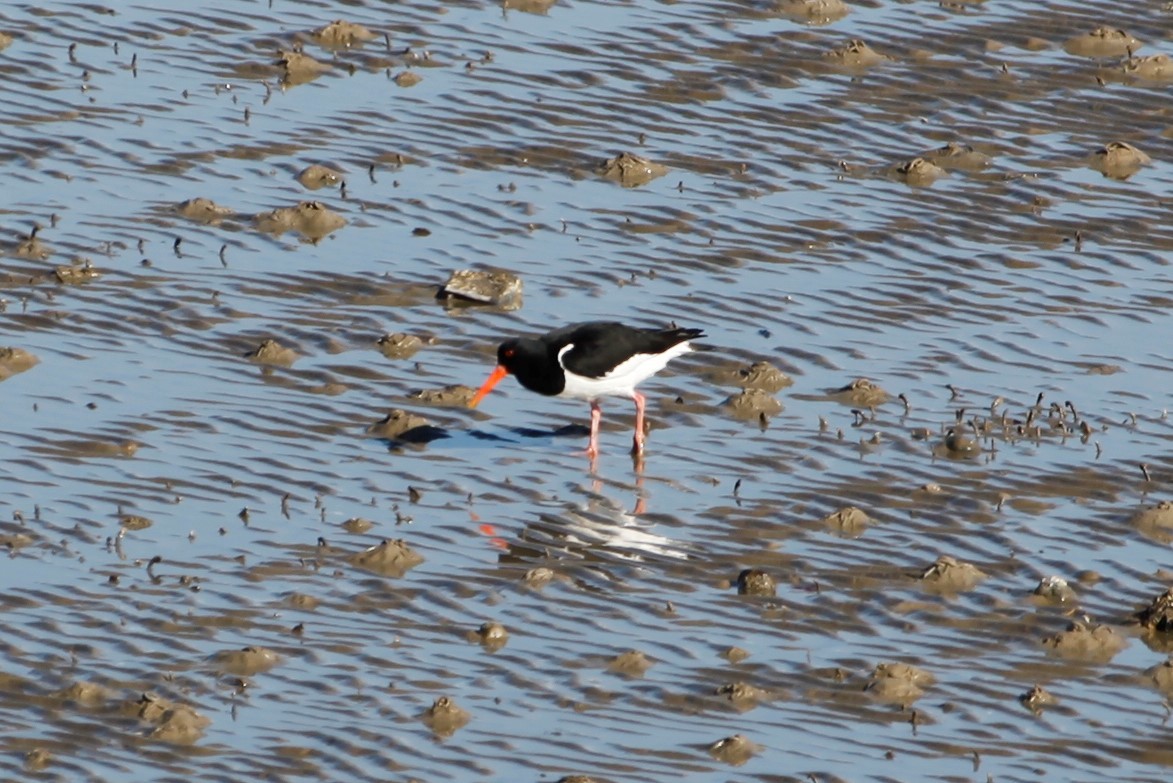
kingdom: Animalia
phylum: Chordata
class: Aves
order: Charadriiformes
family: Haematopodidae
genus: Haematopus
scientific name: Haematopus ostralegus
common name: Eurasian oystercatcher
